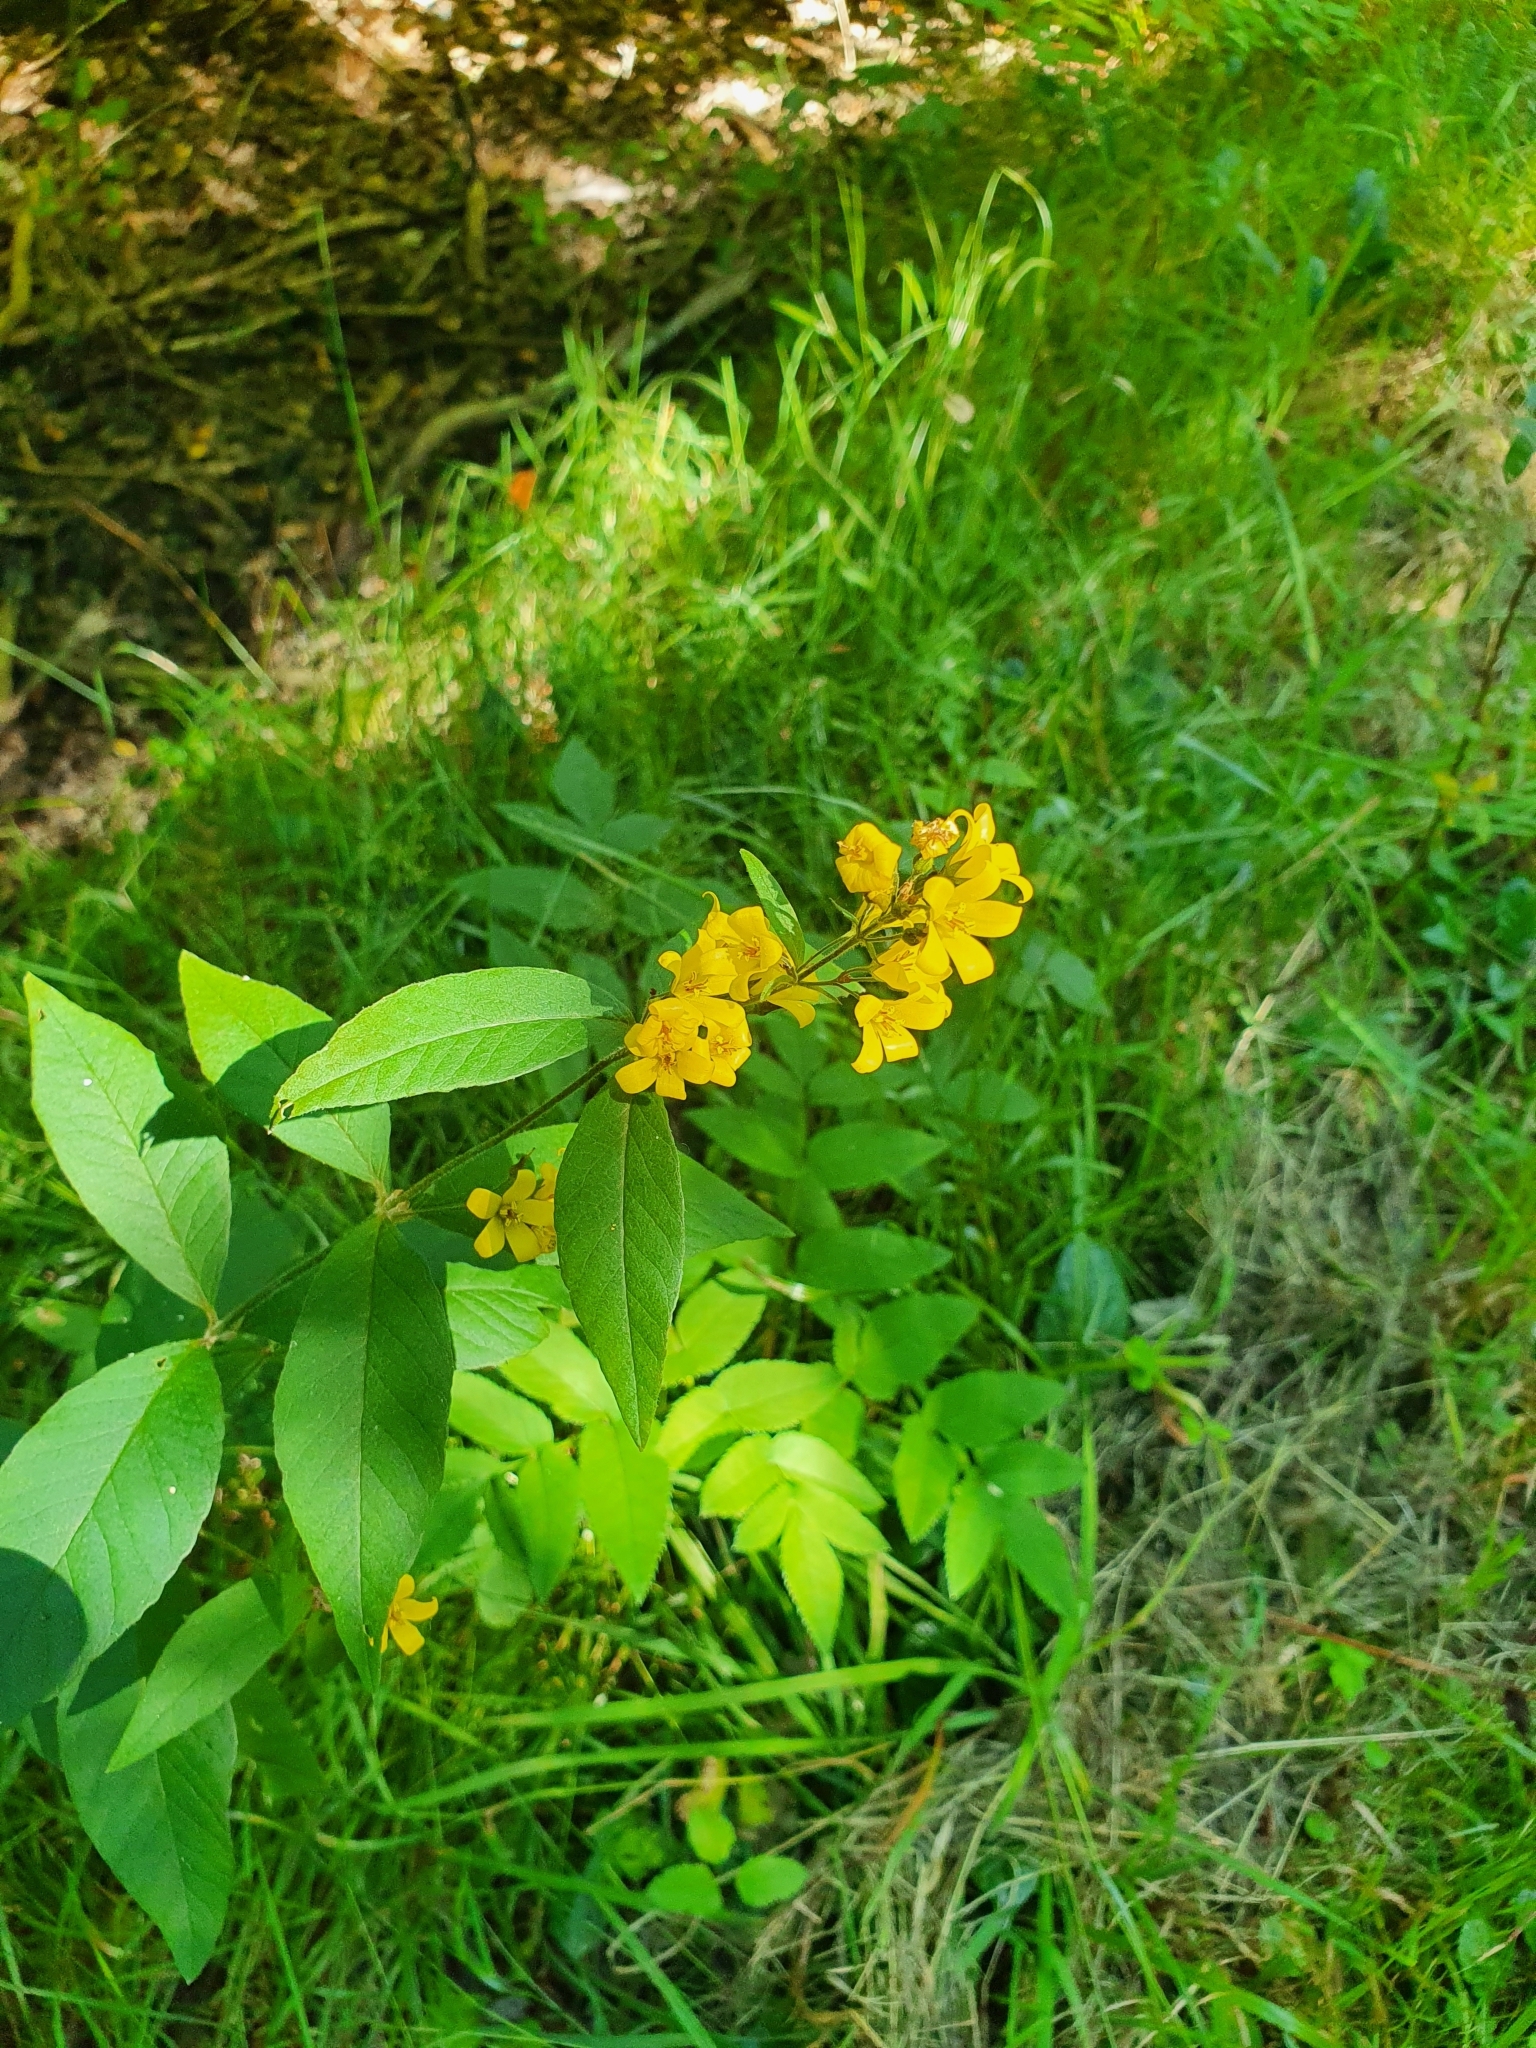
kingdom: Plantae
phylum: Tracheophyta
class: Magnoliopsida
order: Ericales
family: Primulaceae
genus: Lysimachia
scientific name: Lysimachia vulgaris
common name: Yellow loosestrife
